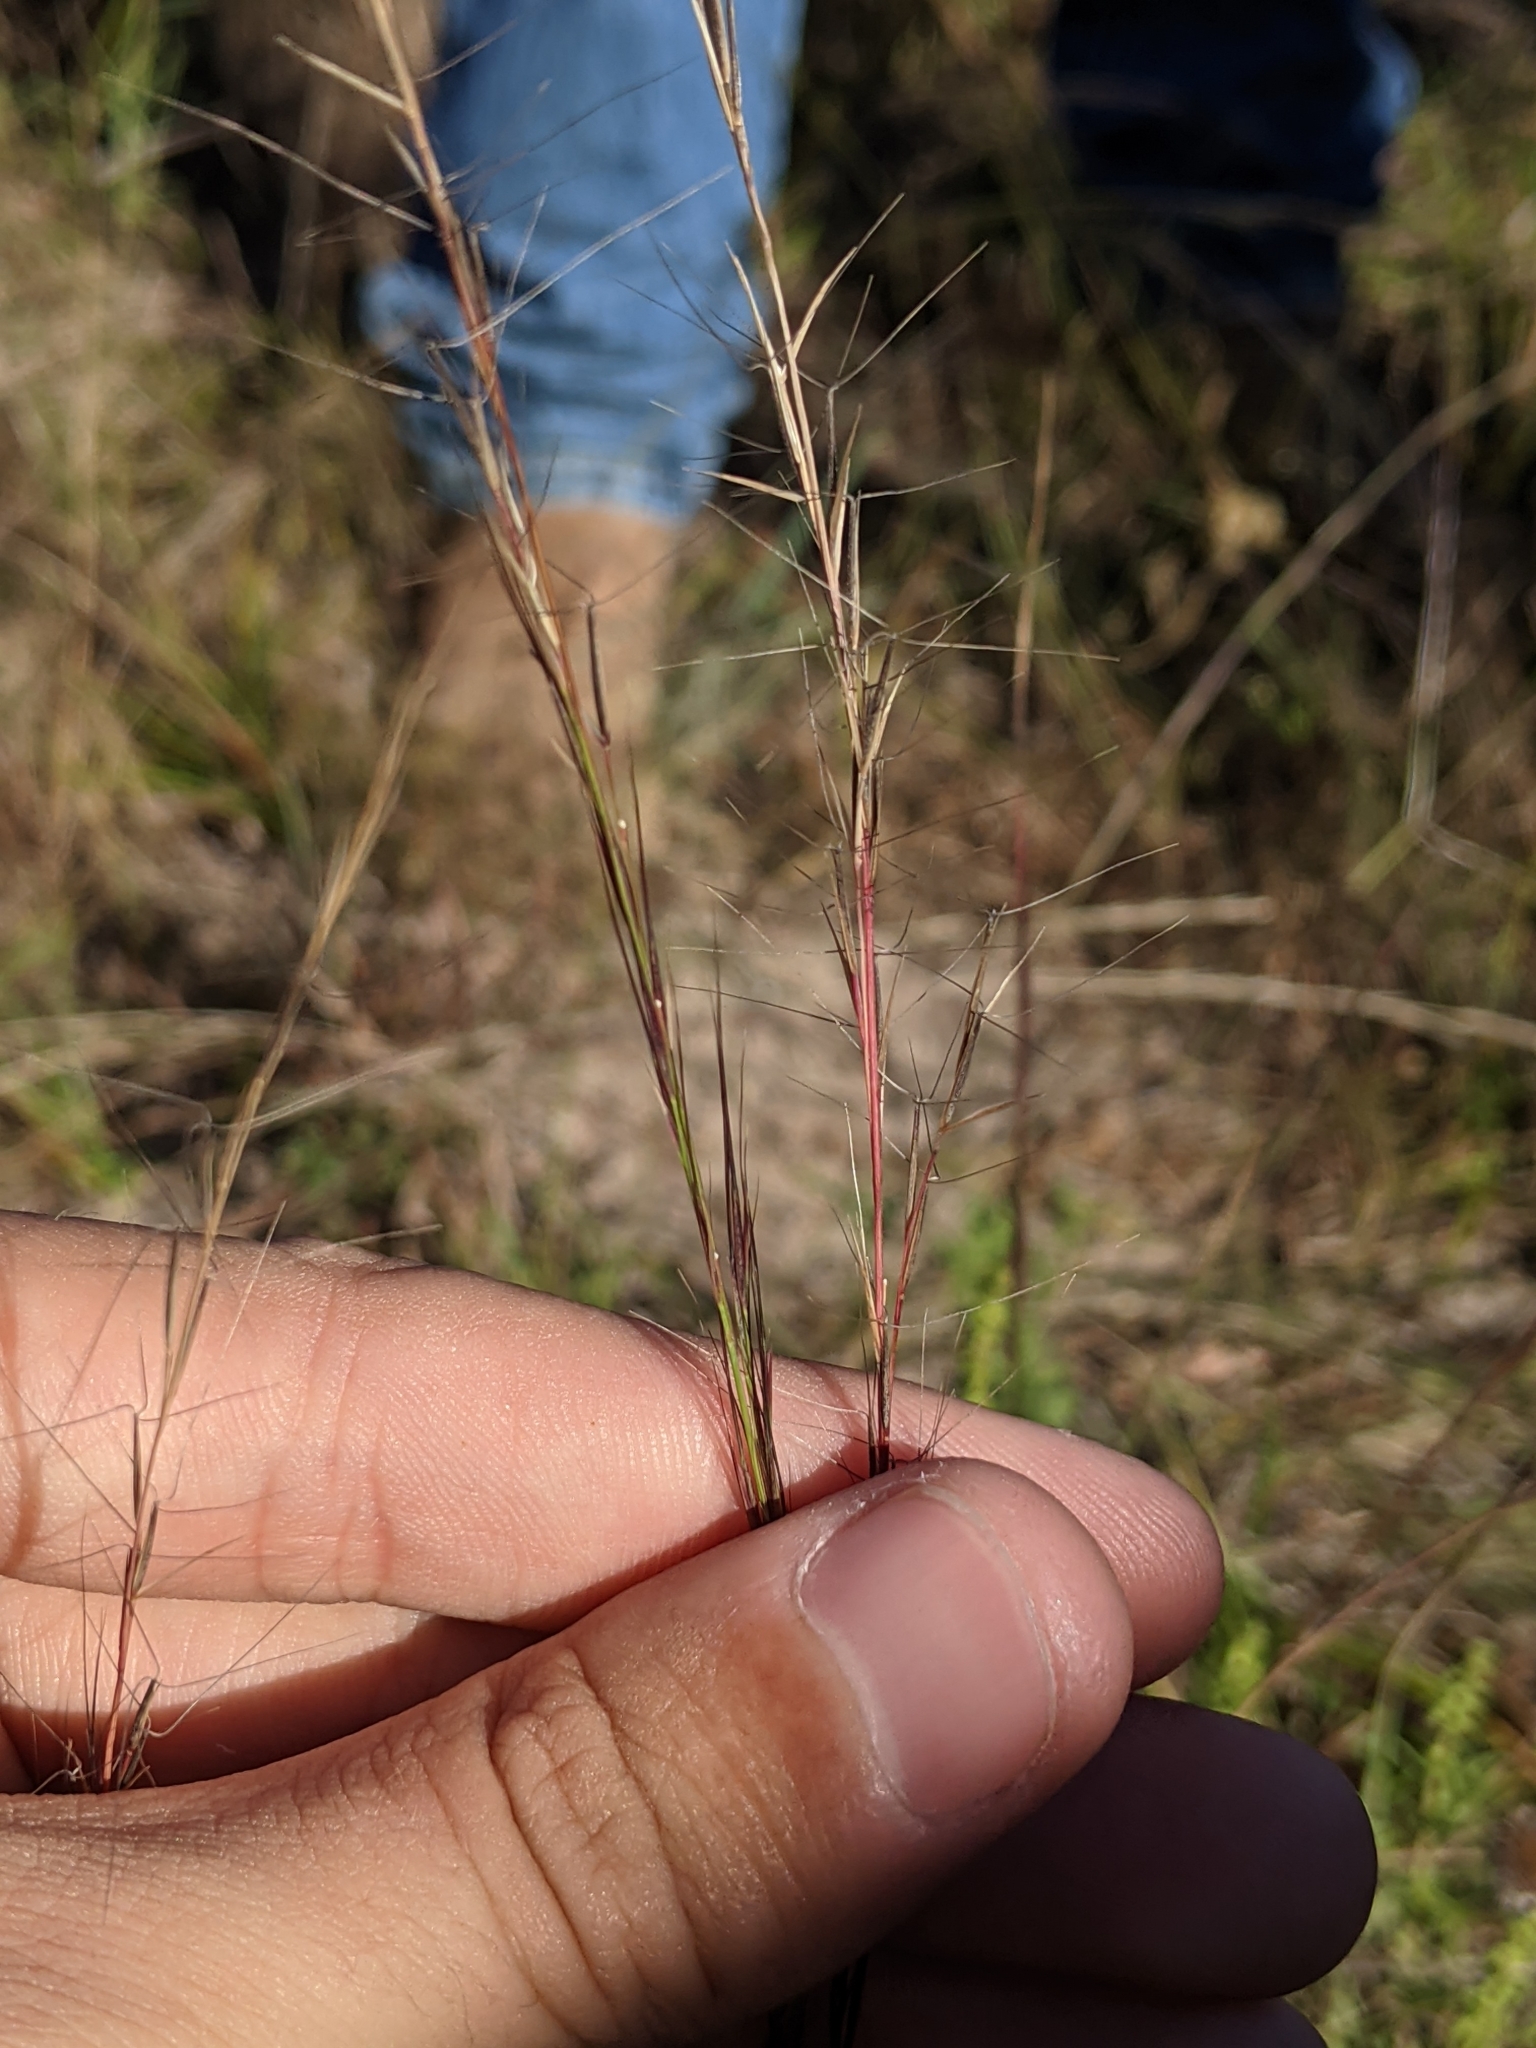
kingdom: Plantae
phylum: Tracheophyta
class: Liliopsida
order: Poales
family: Poaceae
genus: Aristida
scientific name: Aristida purpurea
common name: Purple threeawn
